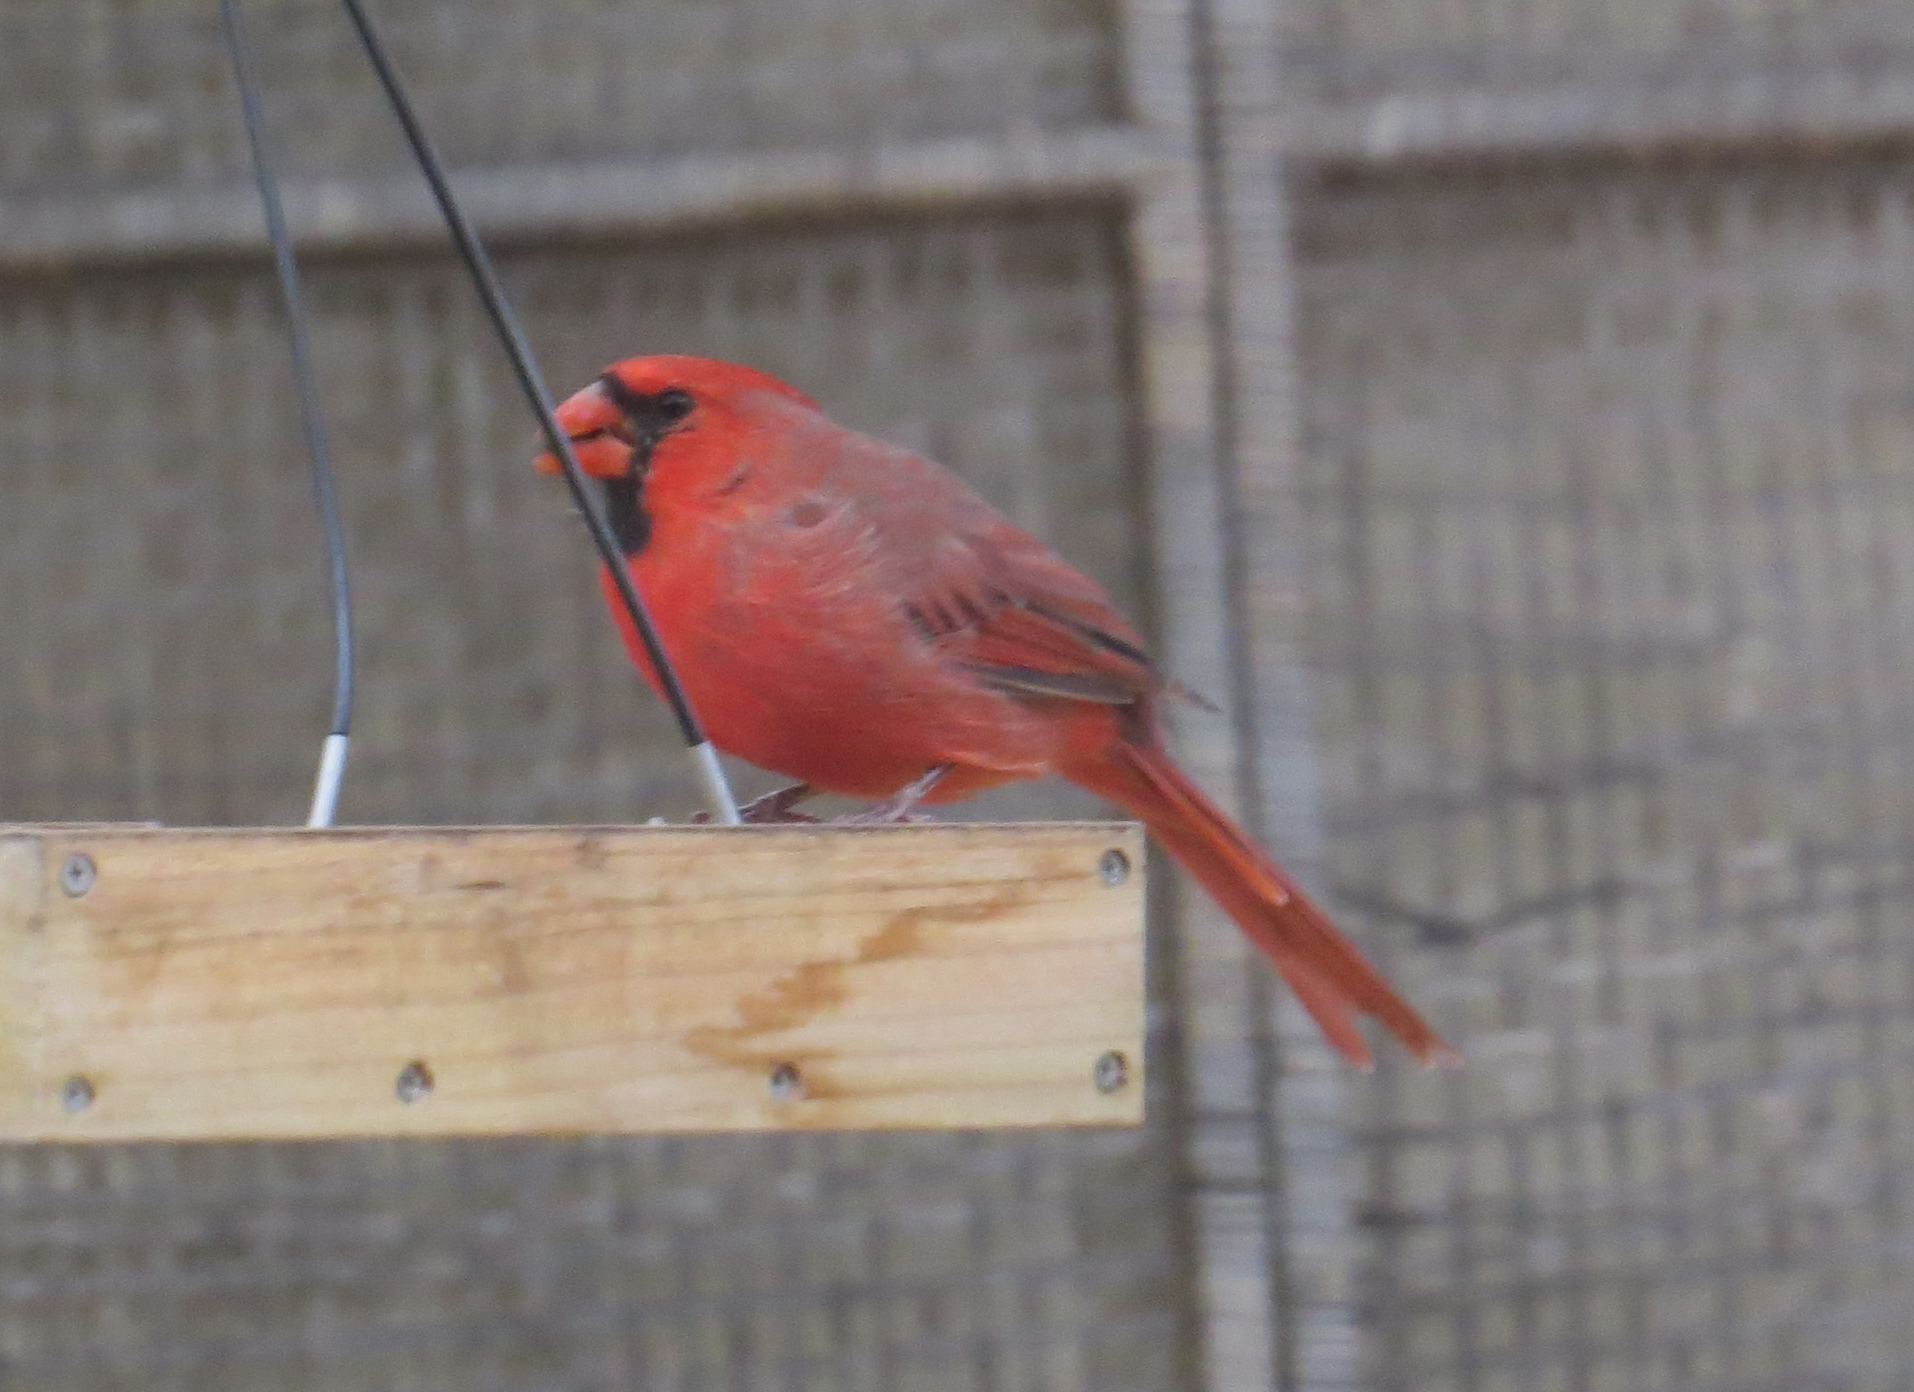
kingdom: Animalia
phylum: Chordata
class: Aves
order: Passeriformes
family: Cardinalidae
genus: Cardinalis
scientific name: Cardinalis cardinalis
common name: Northern cardinal
